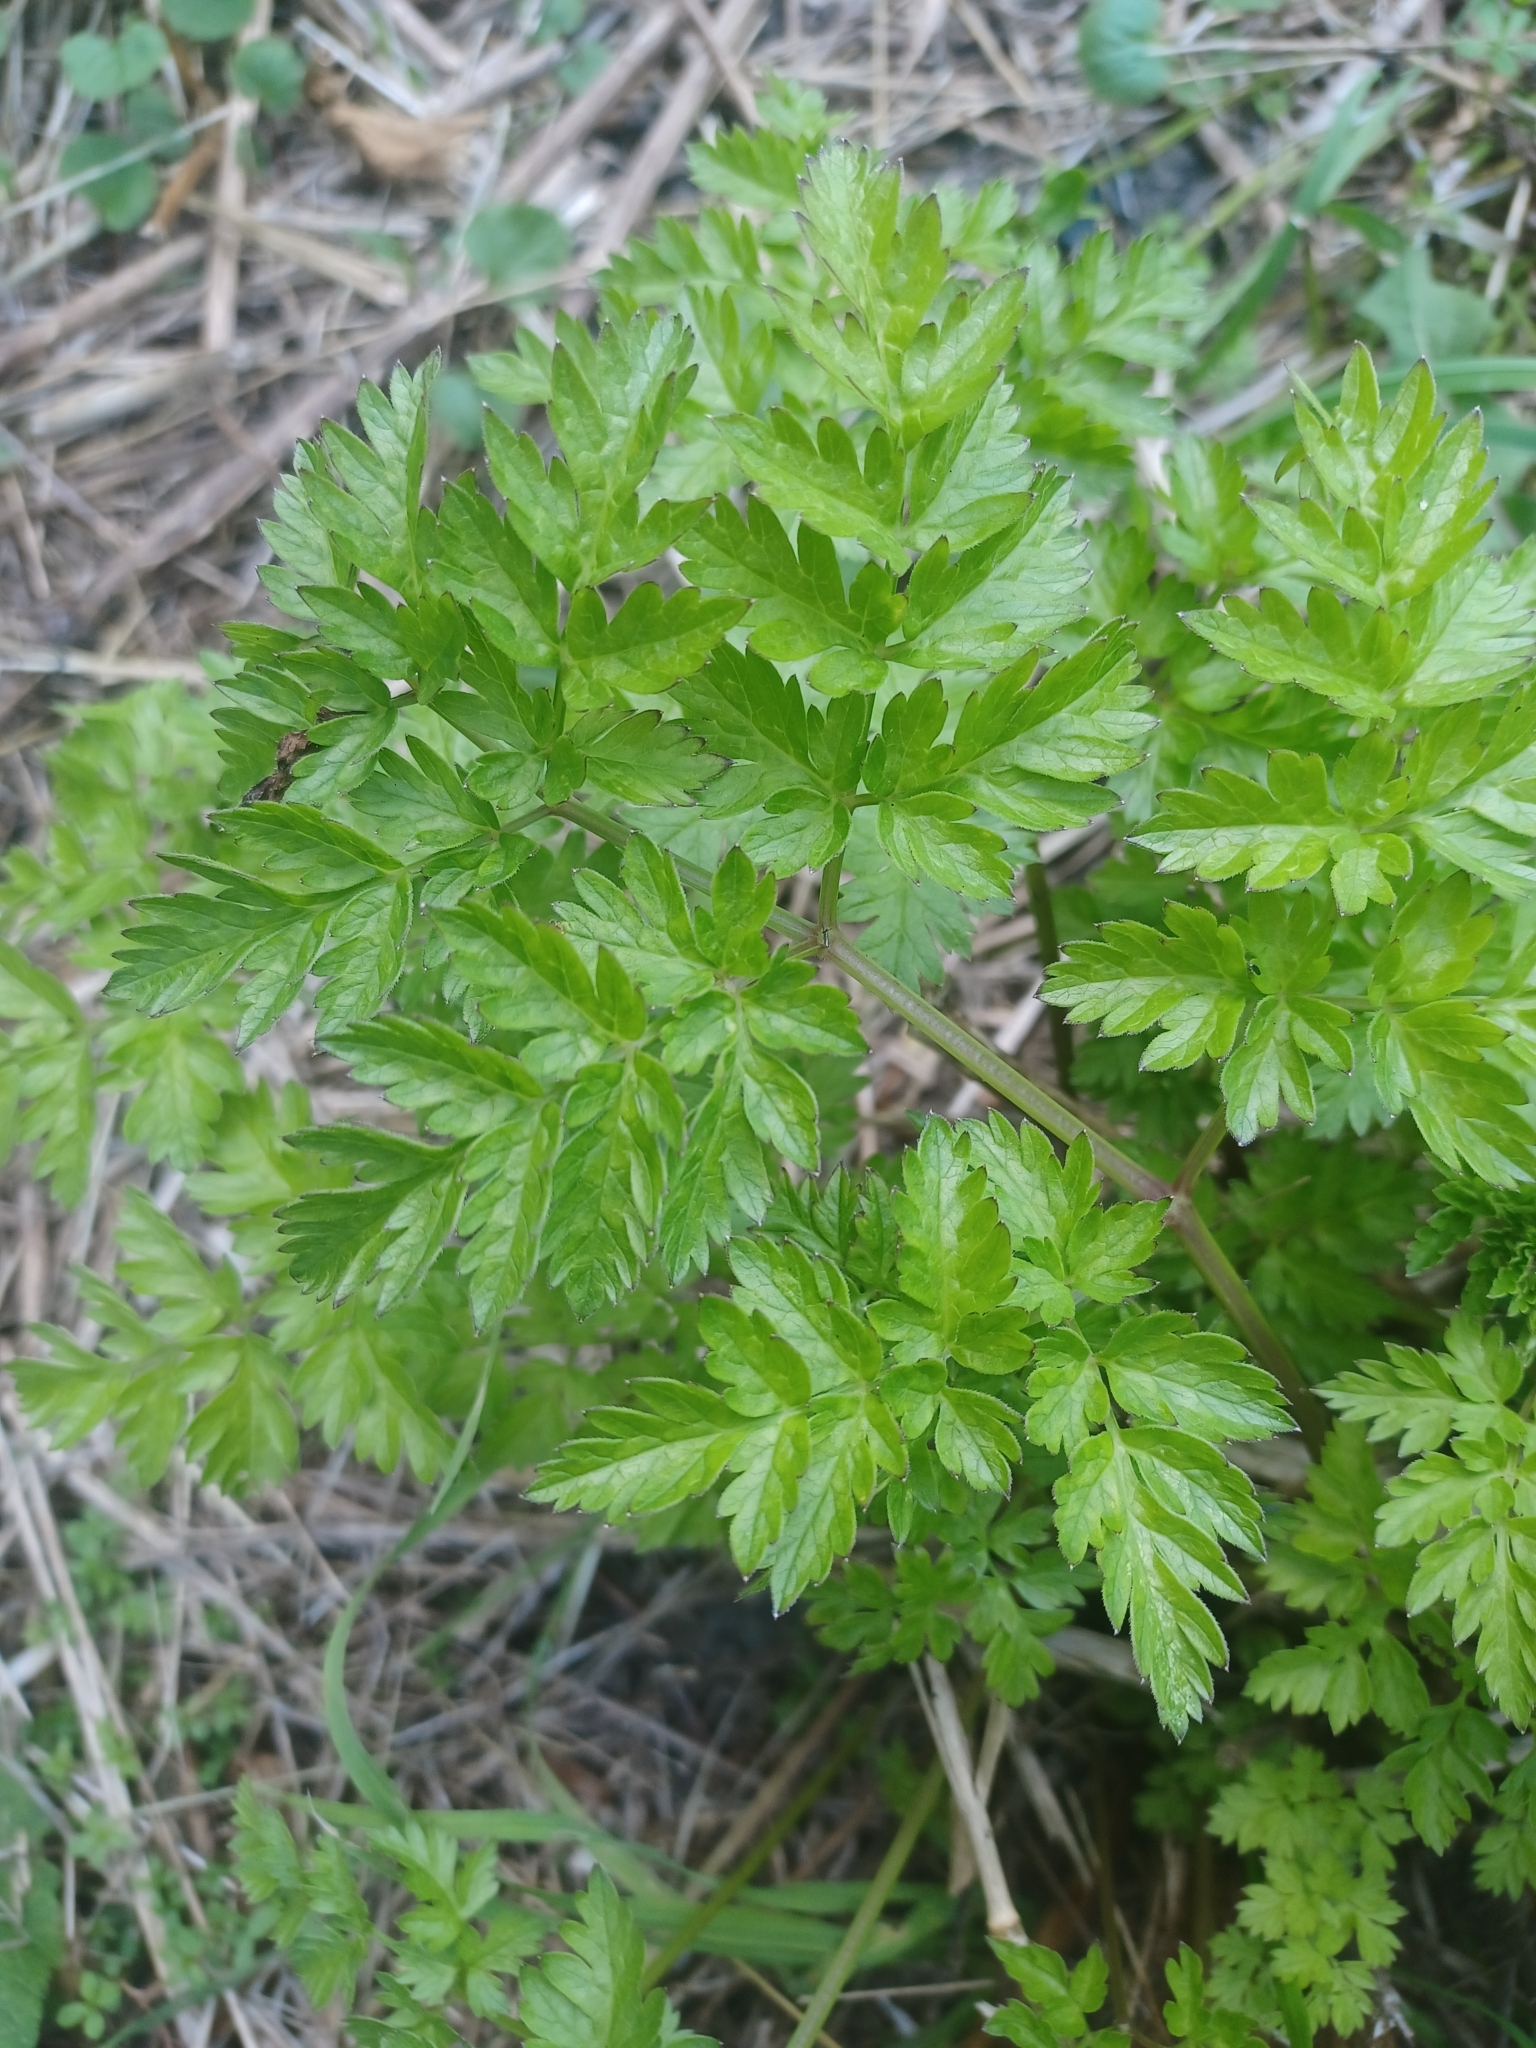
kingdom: Plantae
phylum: Tracheophyta
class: Magnoliopsida
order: Apiales
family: Apiaceae
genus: Anthriscus
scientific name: Anthriscus sylvestris
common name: Cow parsley
